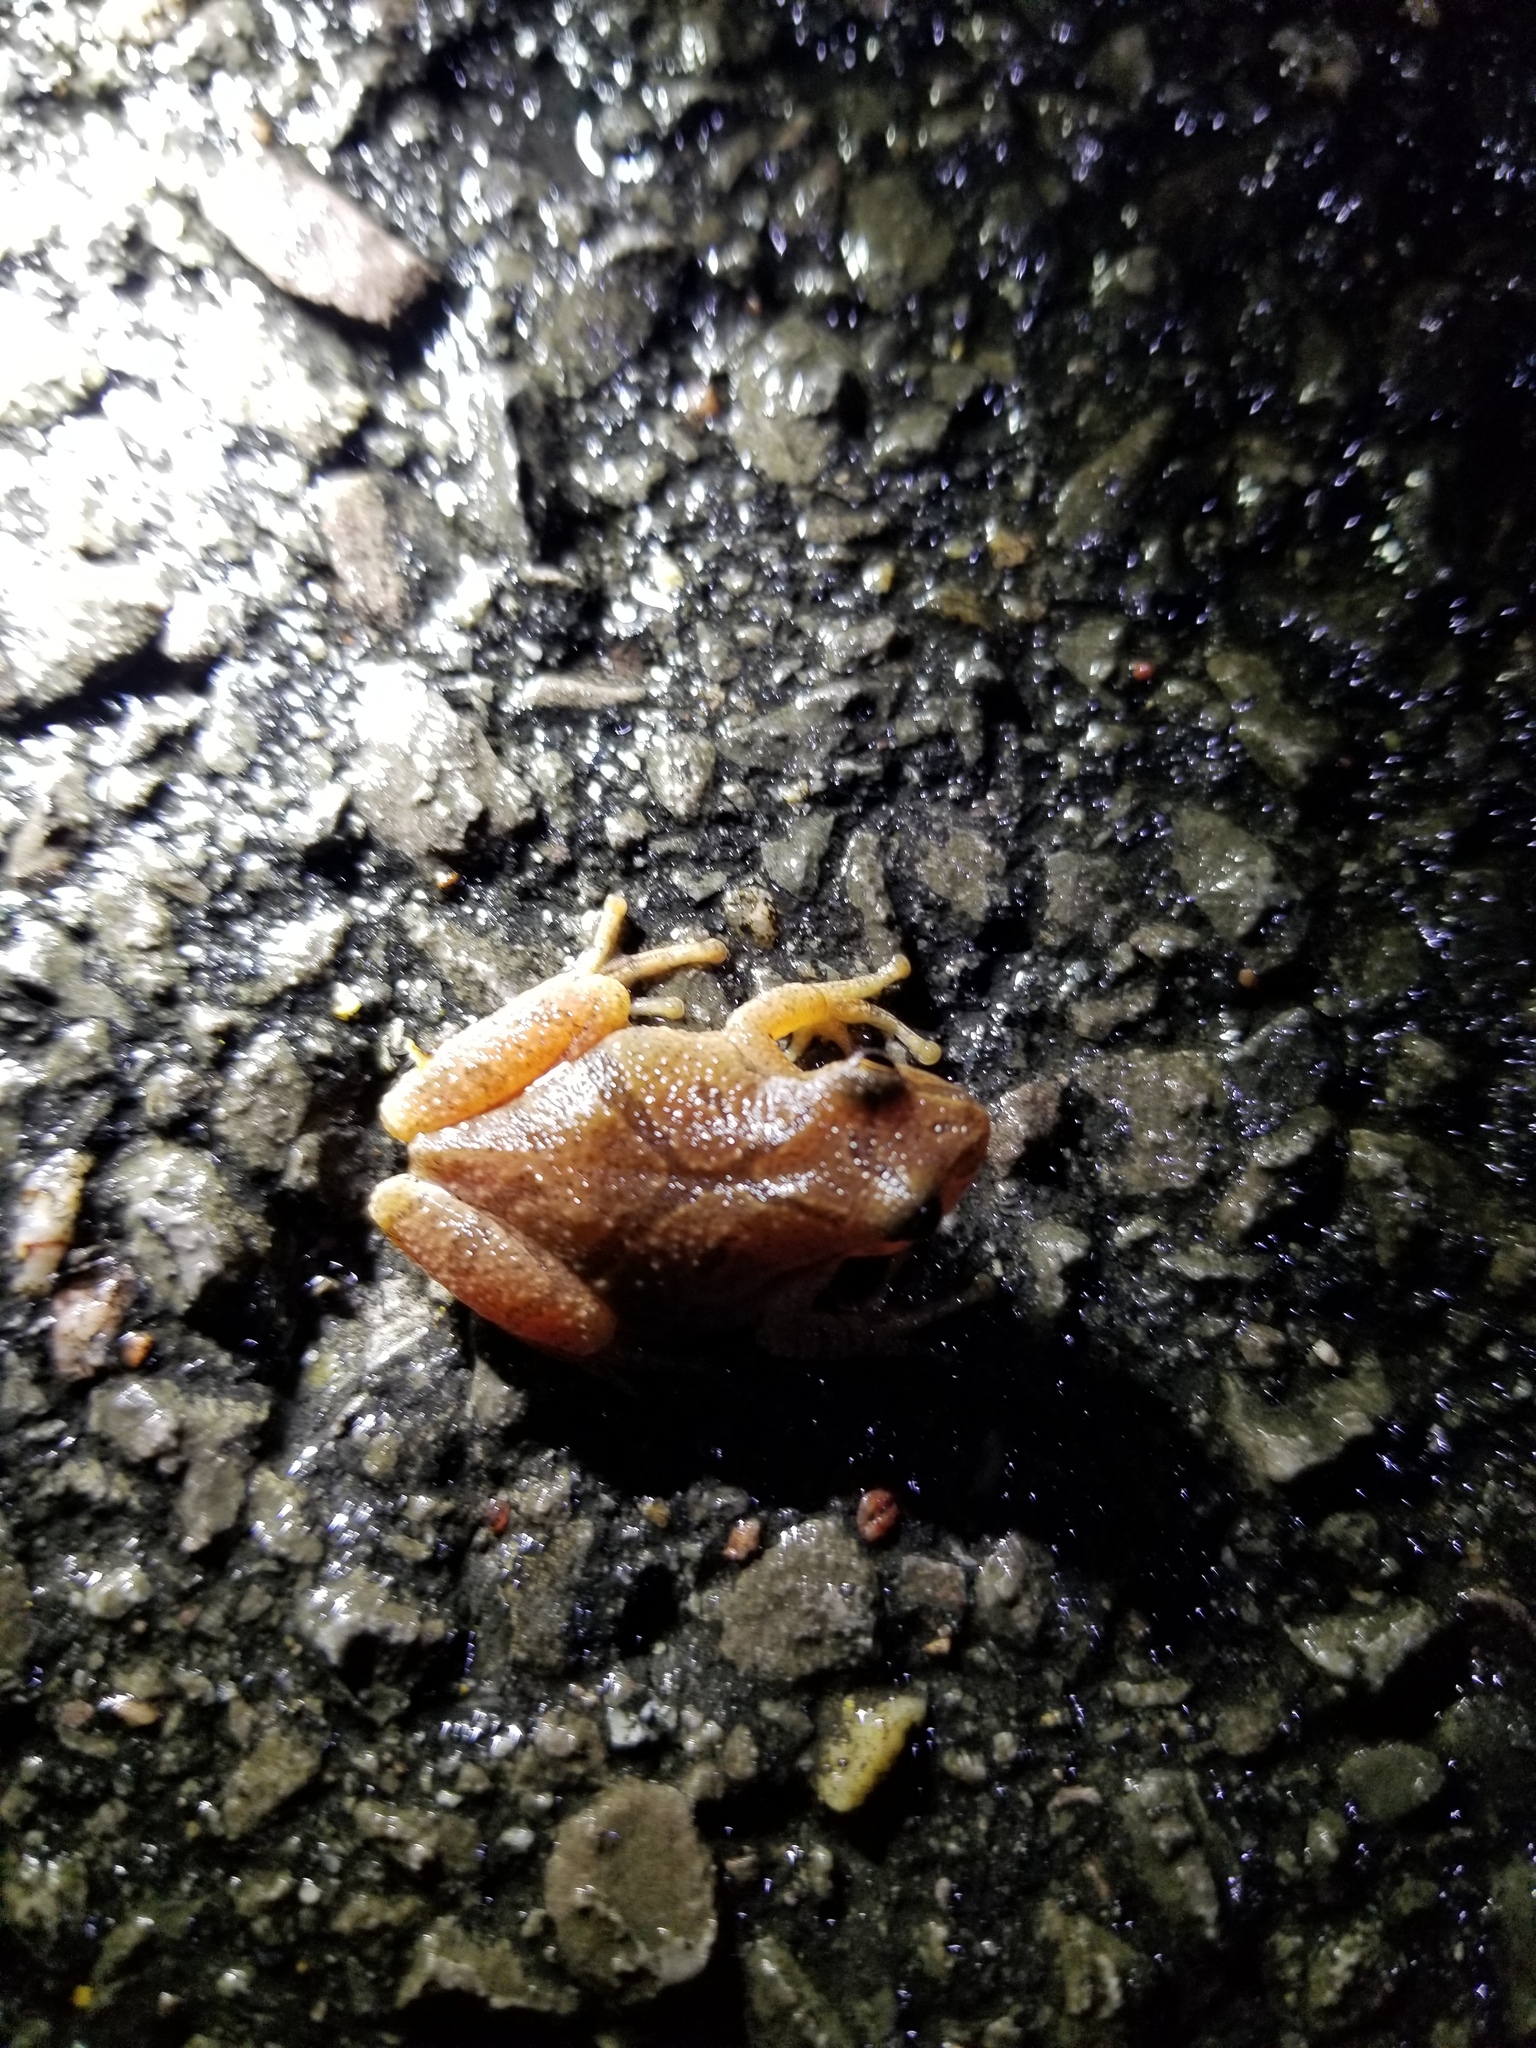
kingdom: Animalia
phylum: Chordata
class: Amphibia
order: Anura
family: Hylidae
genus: Pseudacris
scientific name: Pseudacris crucifer
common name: Spring peeper
